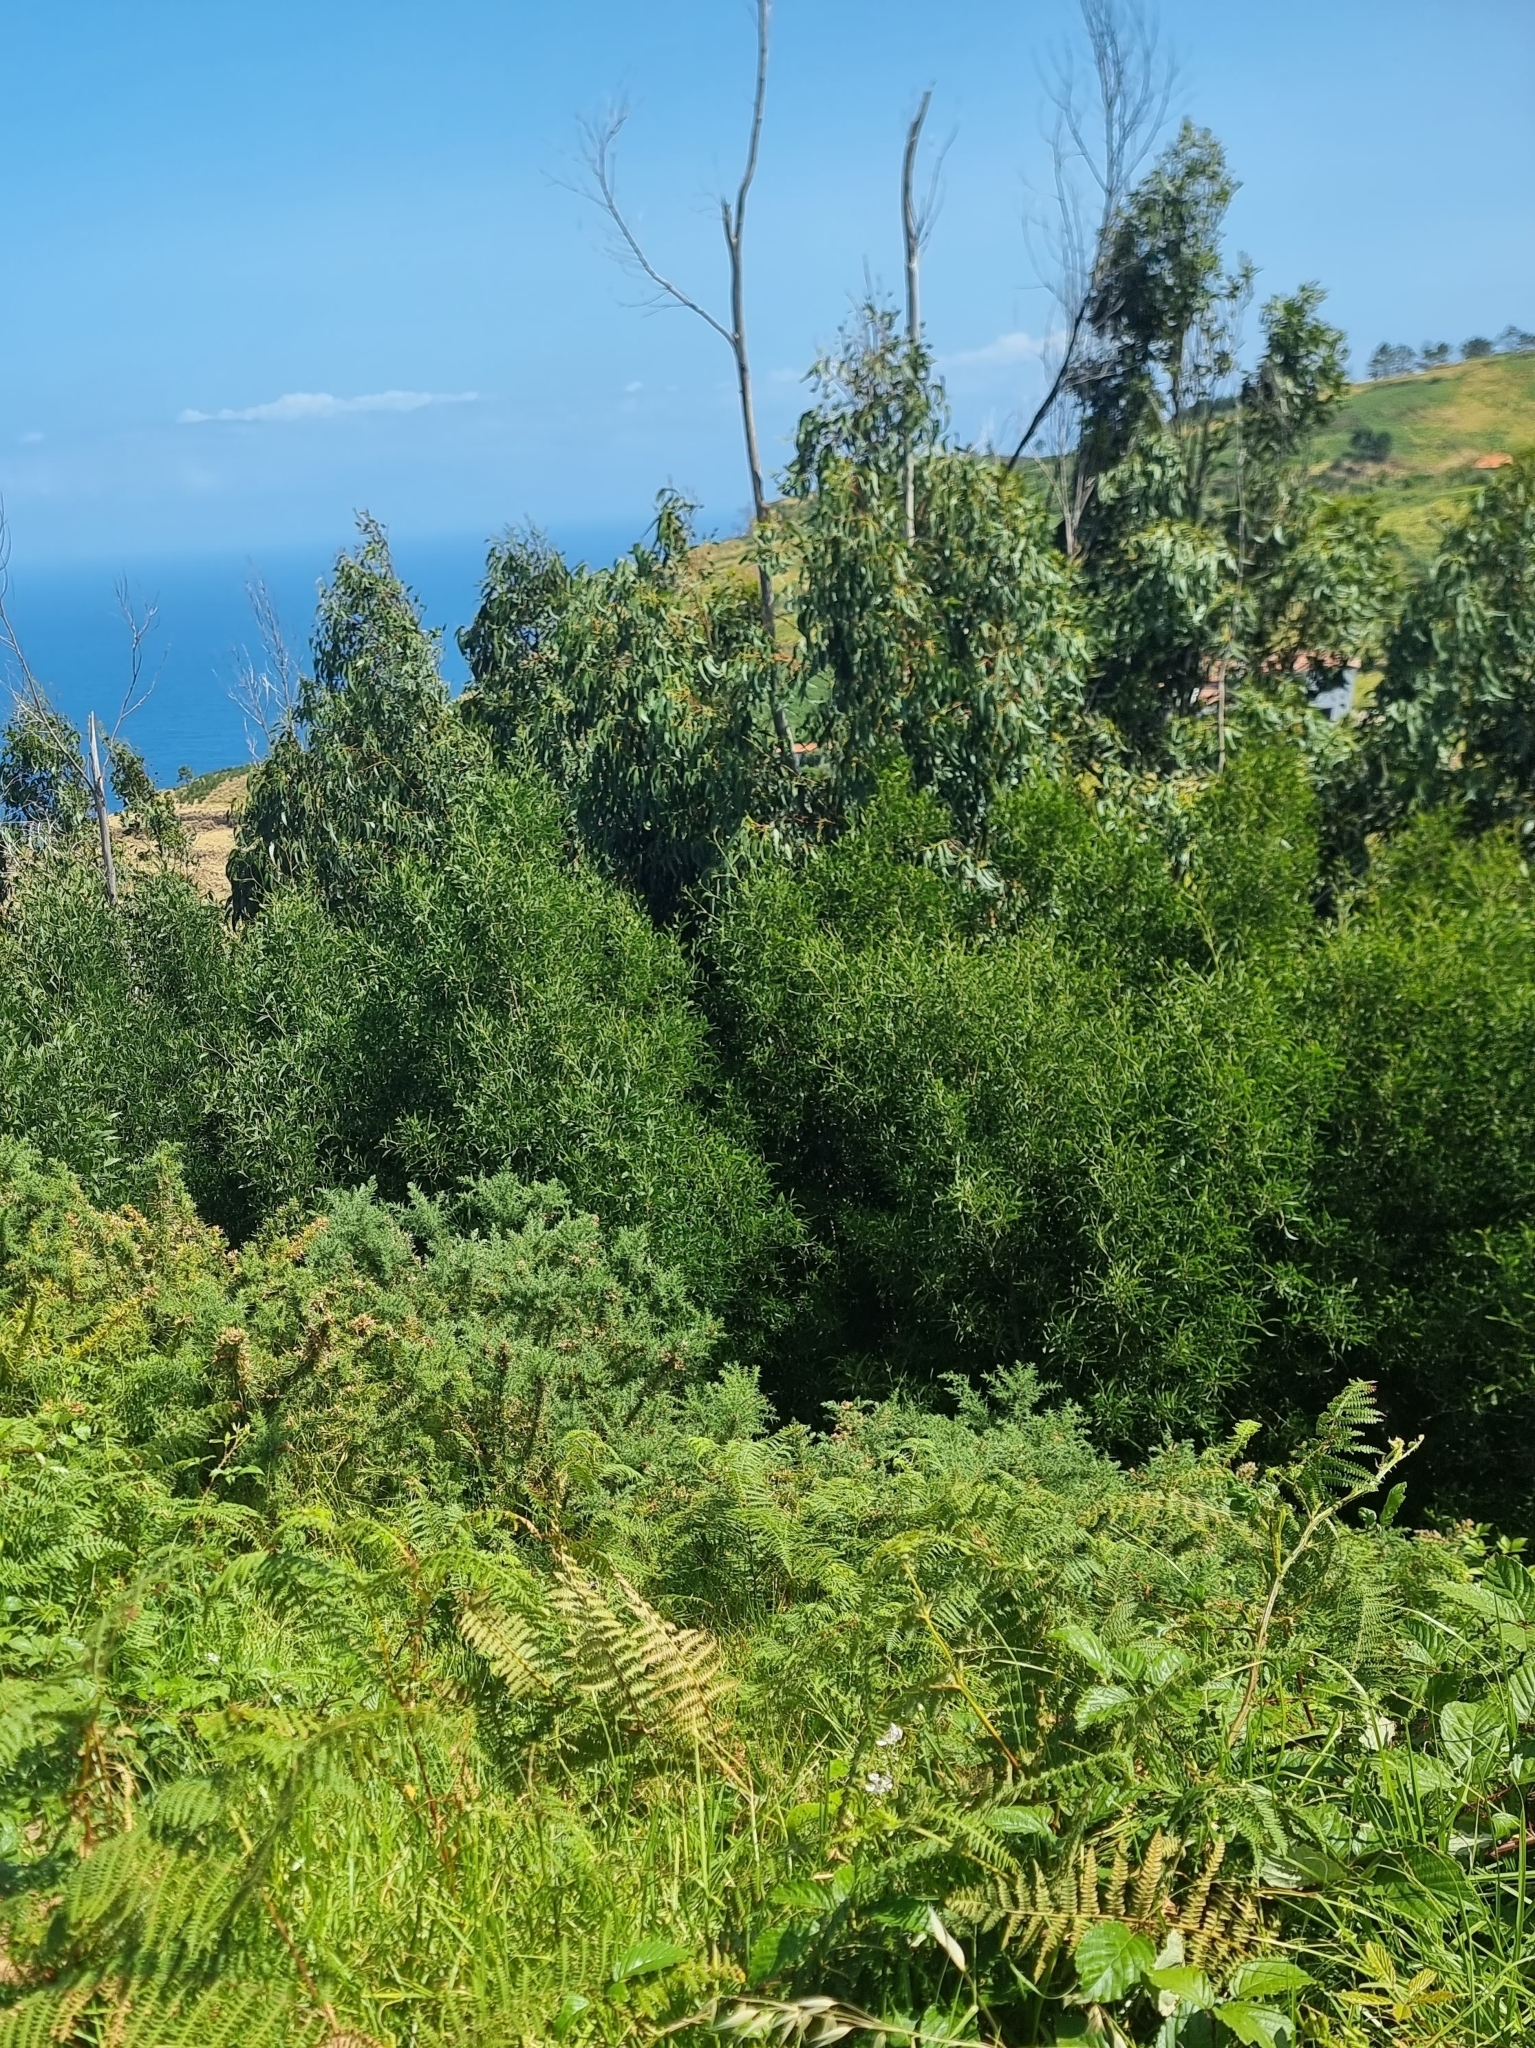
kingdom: Plantae
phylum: Tracheophyta
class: Magnoliopsida
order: Fabales
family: Fabaceae
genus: Acacia
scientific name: Acacia melanoxylon
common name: Blackwood
